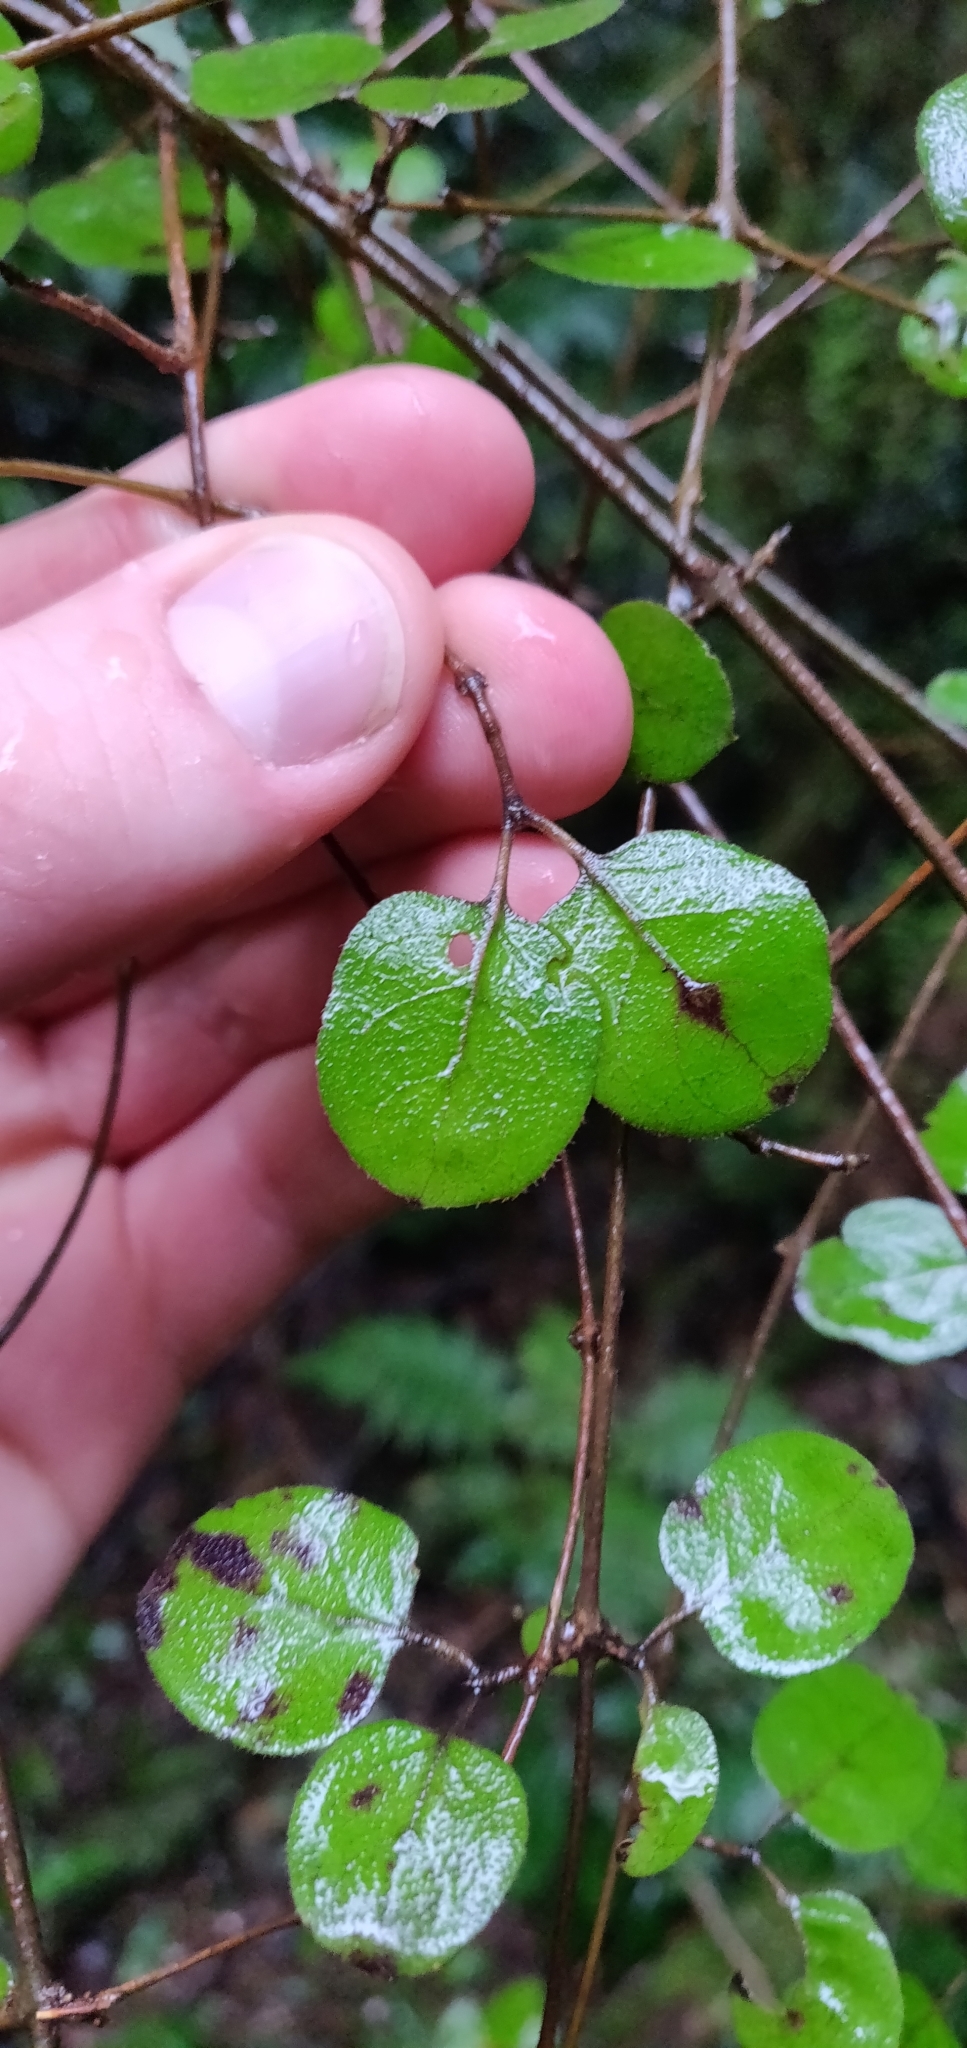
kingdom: Plantae
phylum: Tracheophyta
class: Magnoliopsida
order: Gentianales
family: Rubiaceae
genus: Coprosma
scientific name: Coprosma rotundifolia
